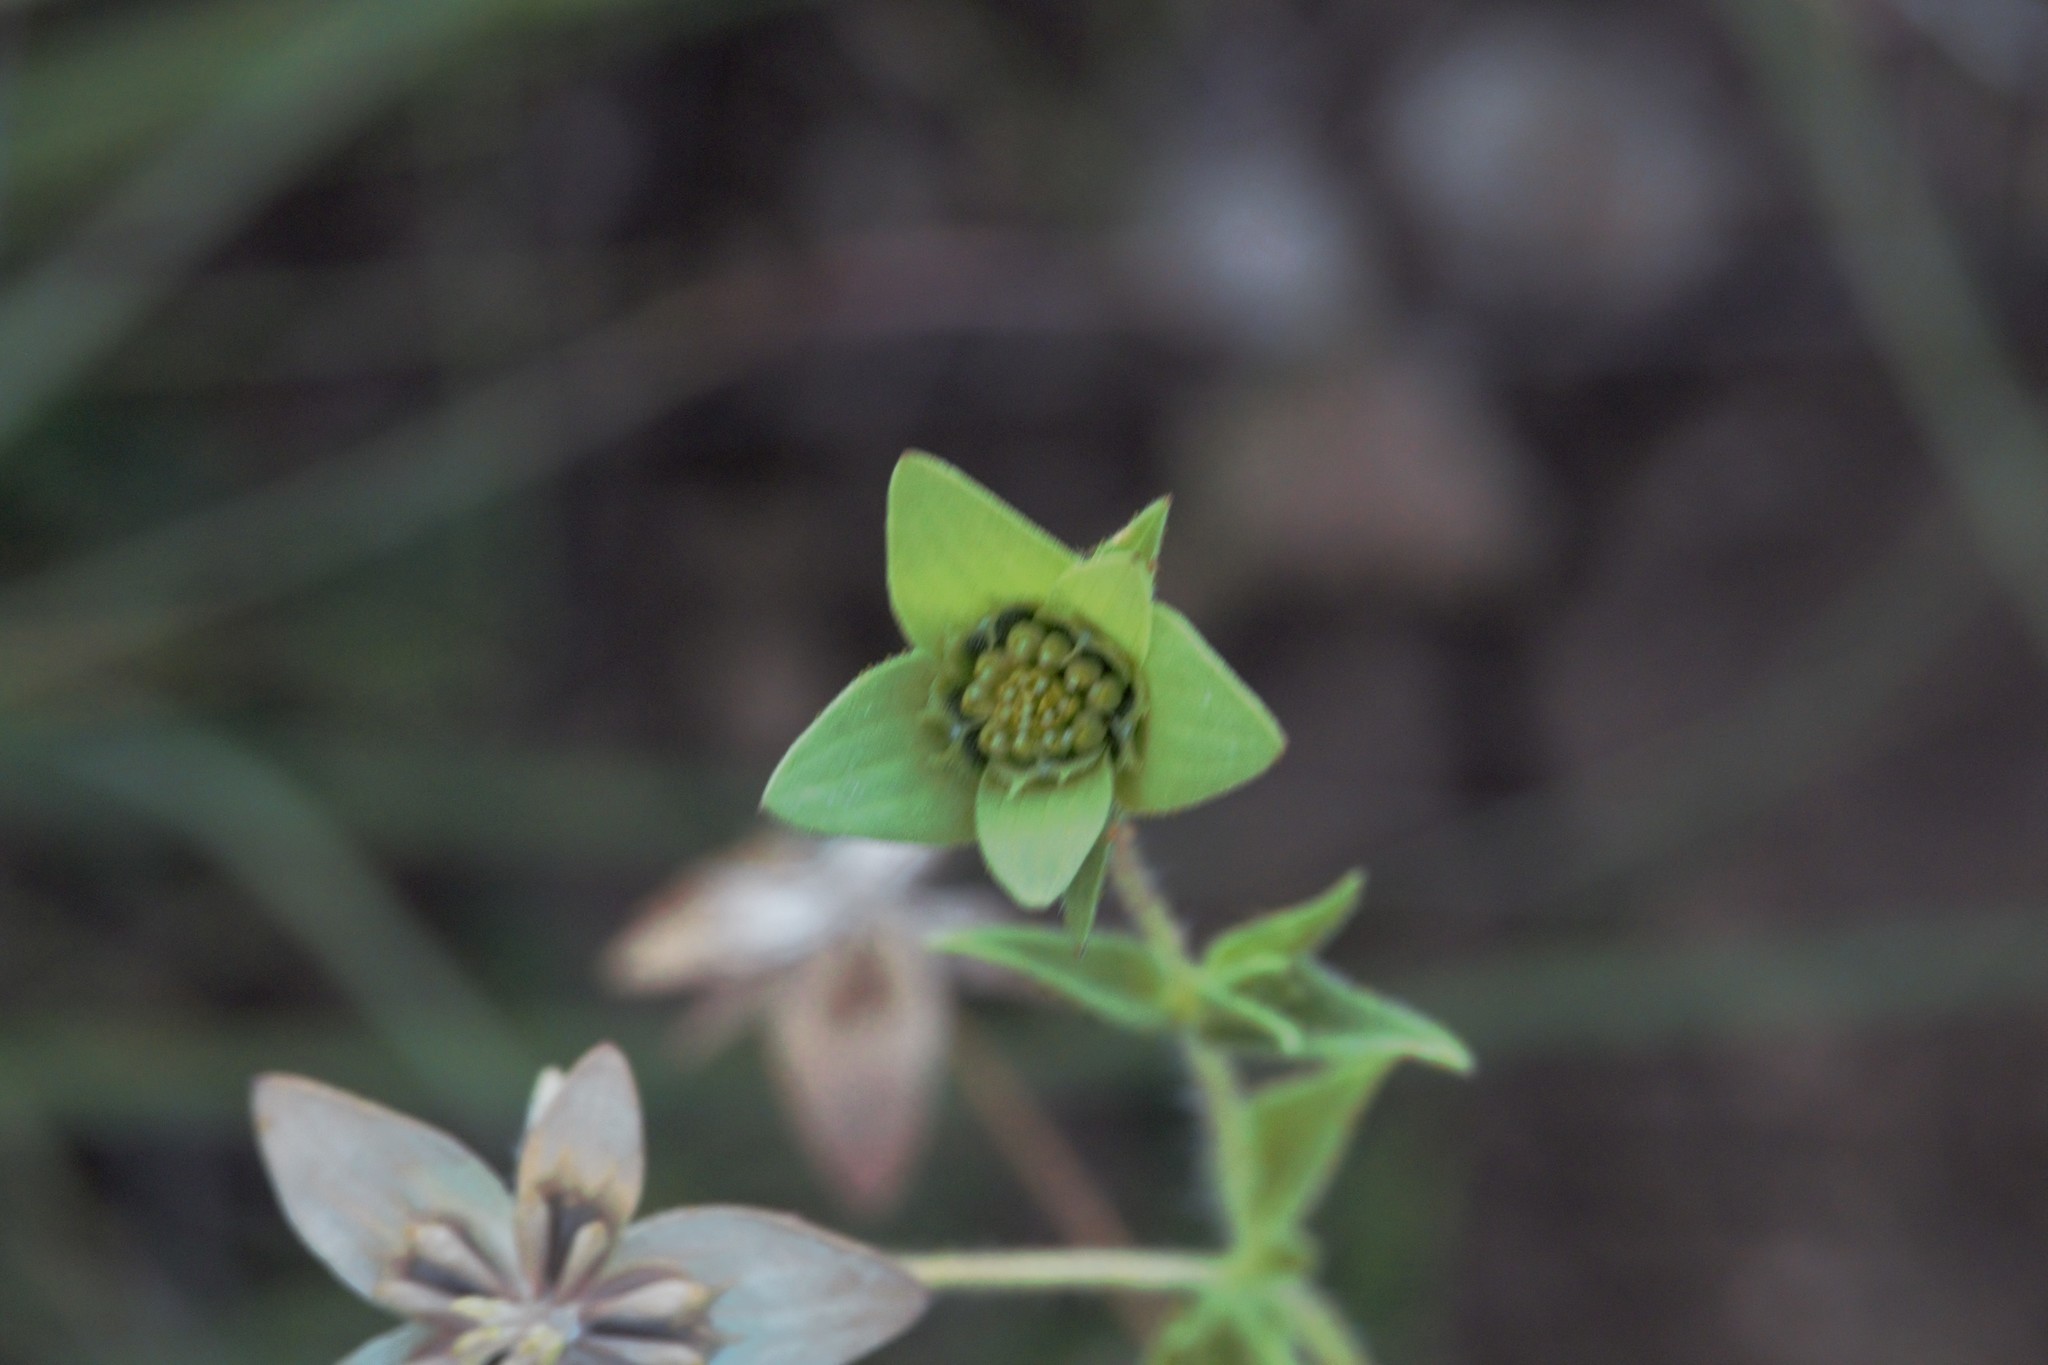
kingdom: Plantae
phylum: Tracheophyta
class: Magnoliopsida
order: Asterales
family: Asteraceae
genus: Lindheimera
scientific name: Lindheimera texana
